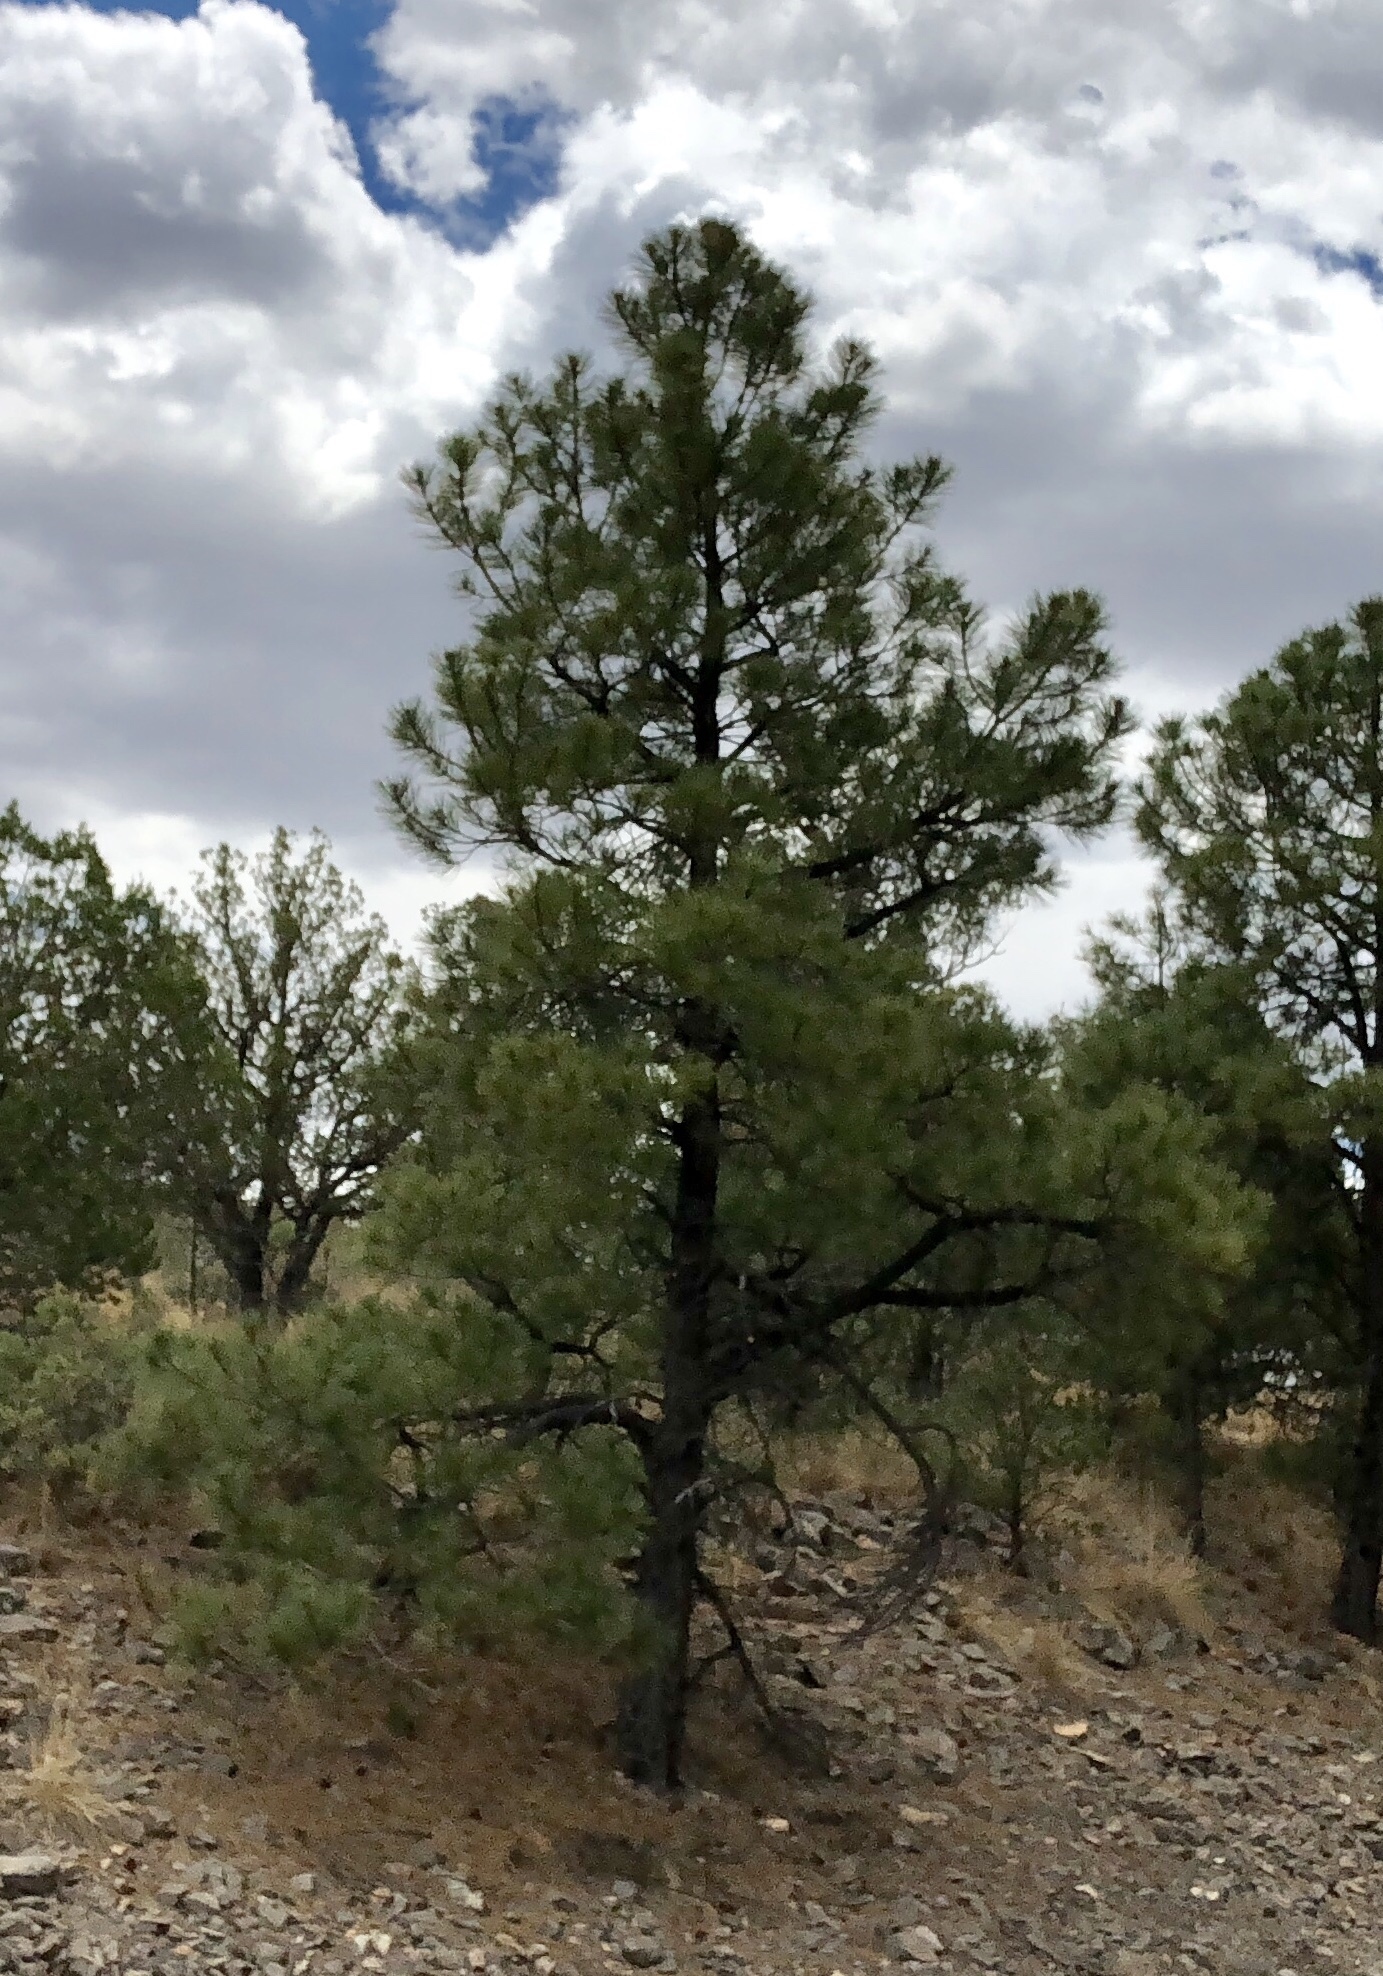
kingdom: Plantae
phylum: Tracheophyta
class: Pinopsida
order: Pinales
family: Pinaceae
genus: Pinus
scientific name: Pinus ponderosa
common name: Western yellow-pine
